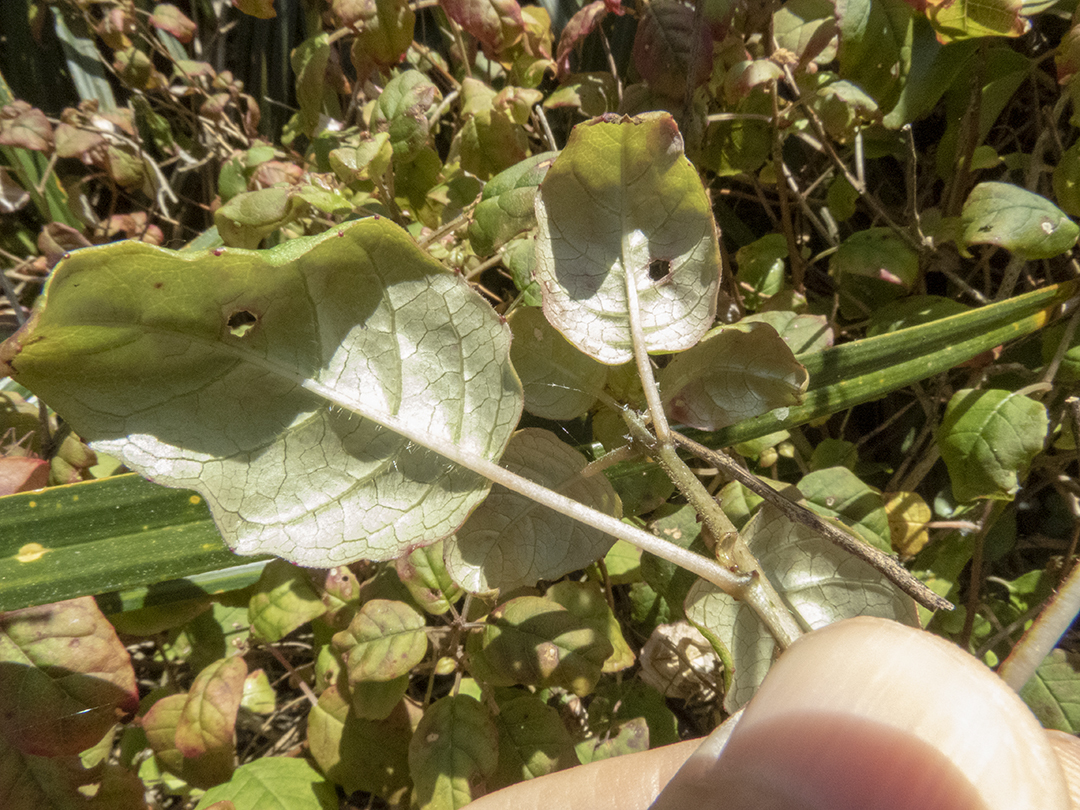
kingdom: Plantae
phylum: Tracheophyta
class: Magnoliopsida
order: Myrtales
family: Onagraceae
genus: Fuchsia
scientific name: Fuchsia colensoi
